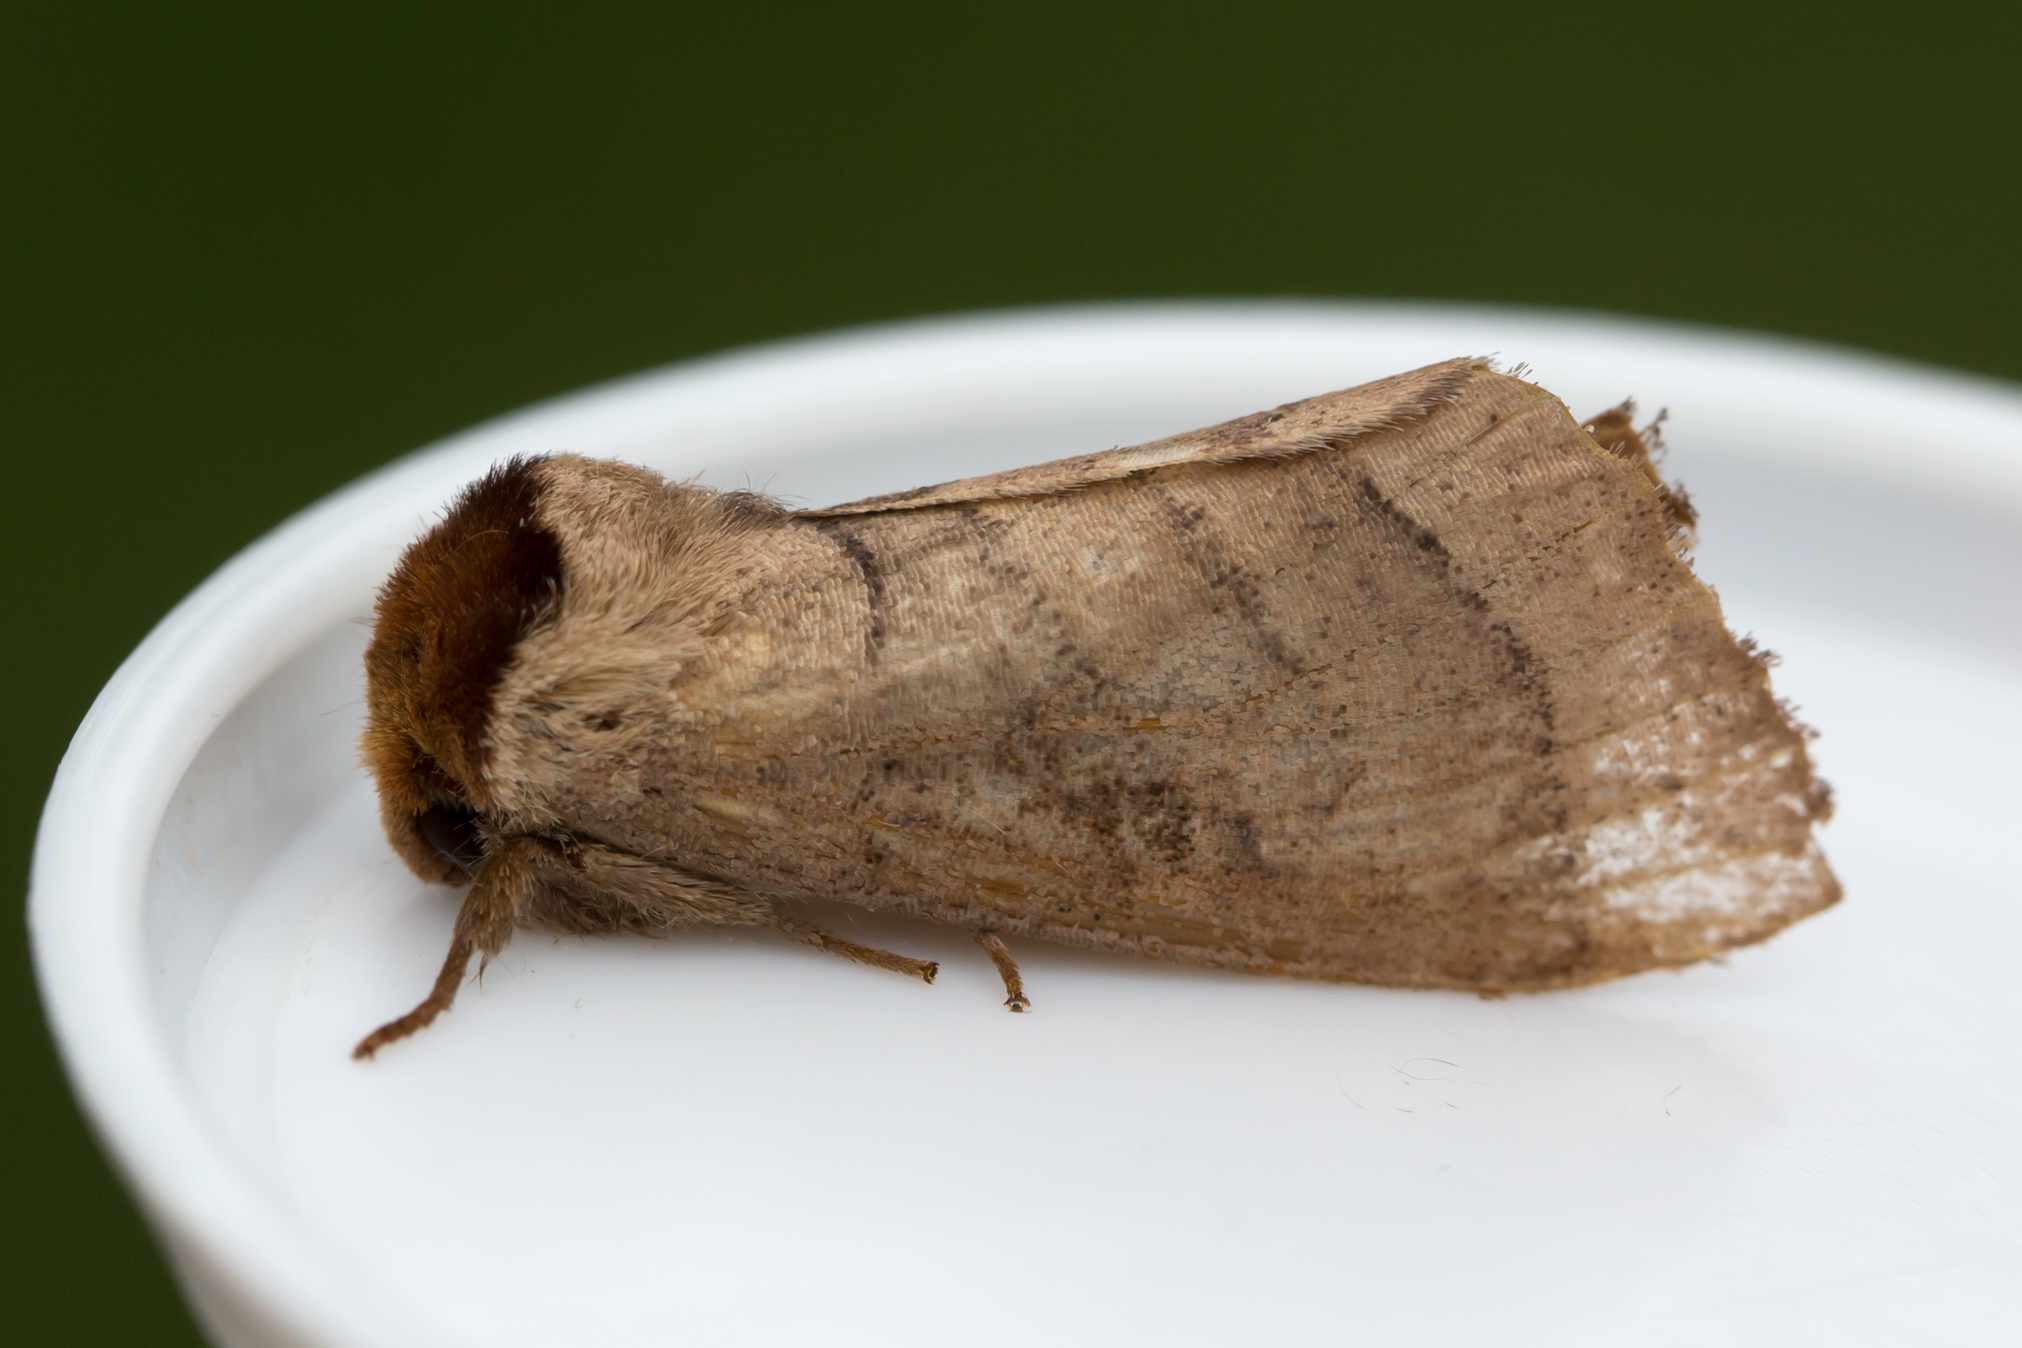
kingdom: Animalia
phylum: Arthropoda
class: Insecta
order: Lepidoptera
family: Notodontidae
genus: Datana
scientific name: Datana integerrima
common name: Walnut caterpillar
